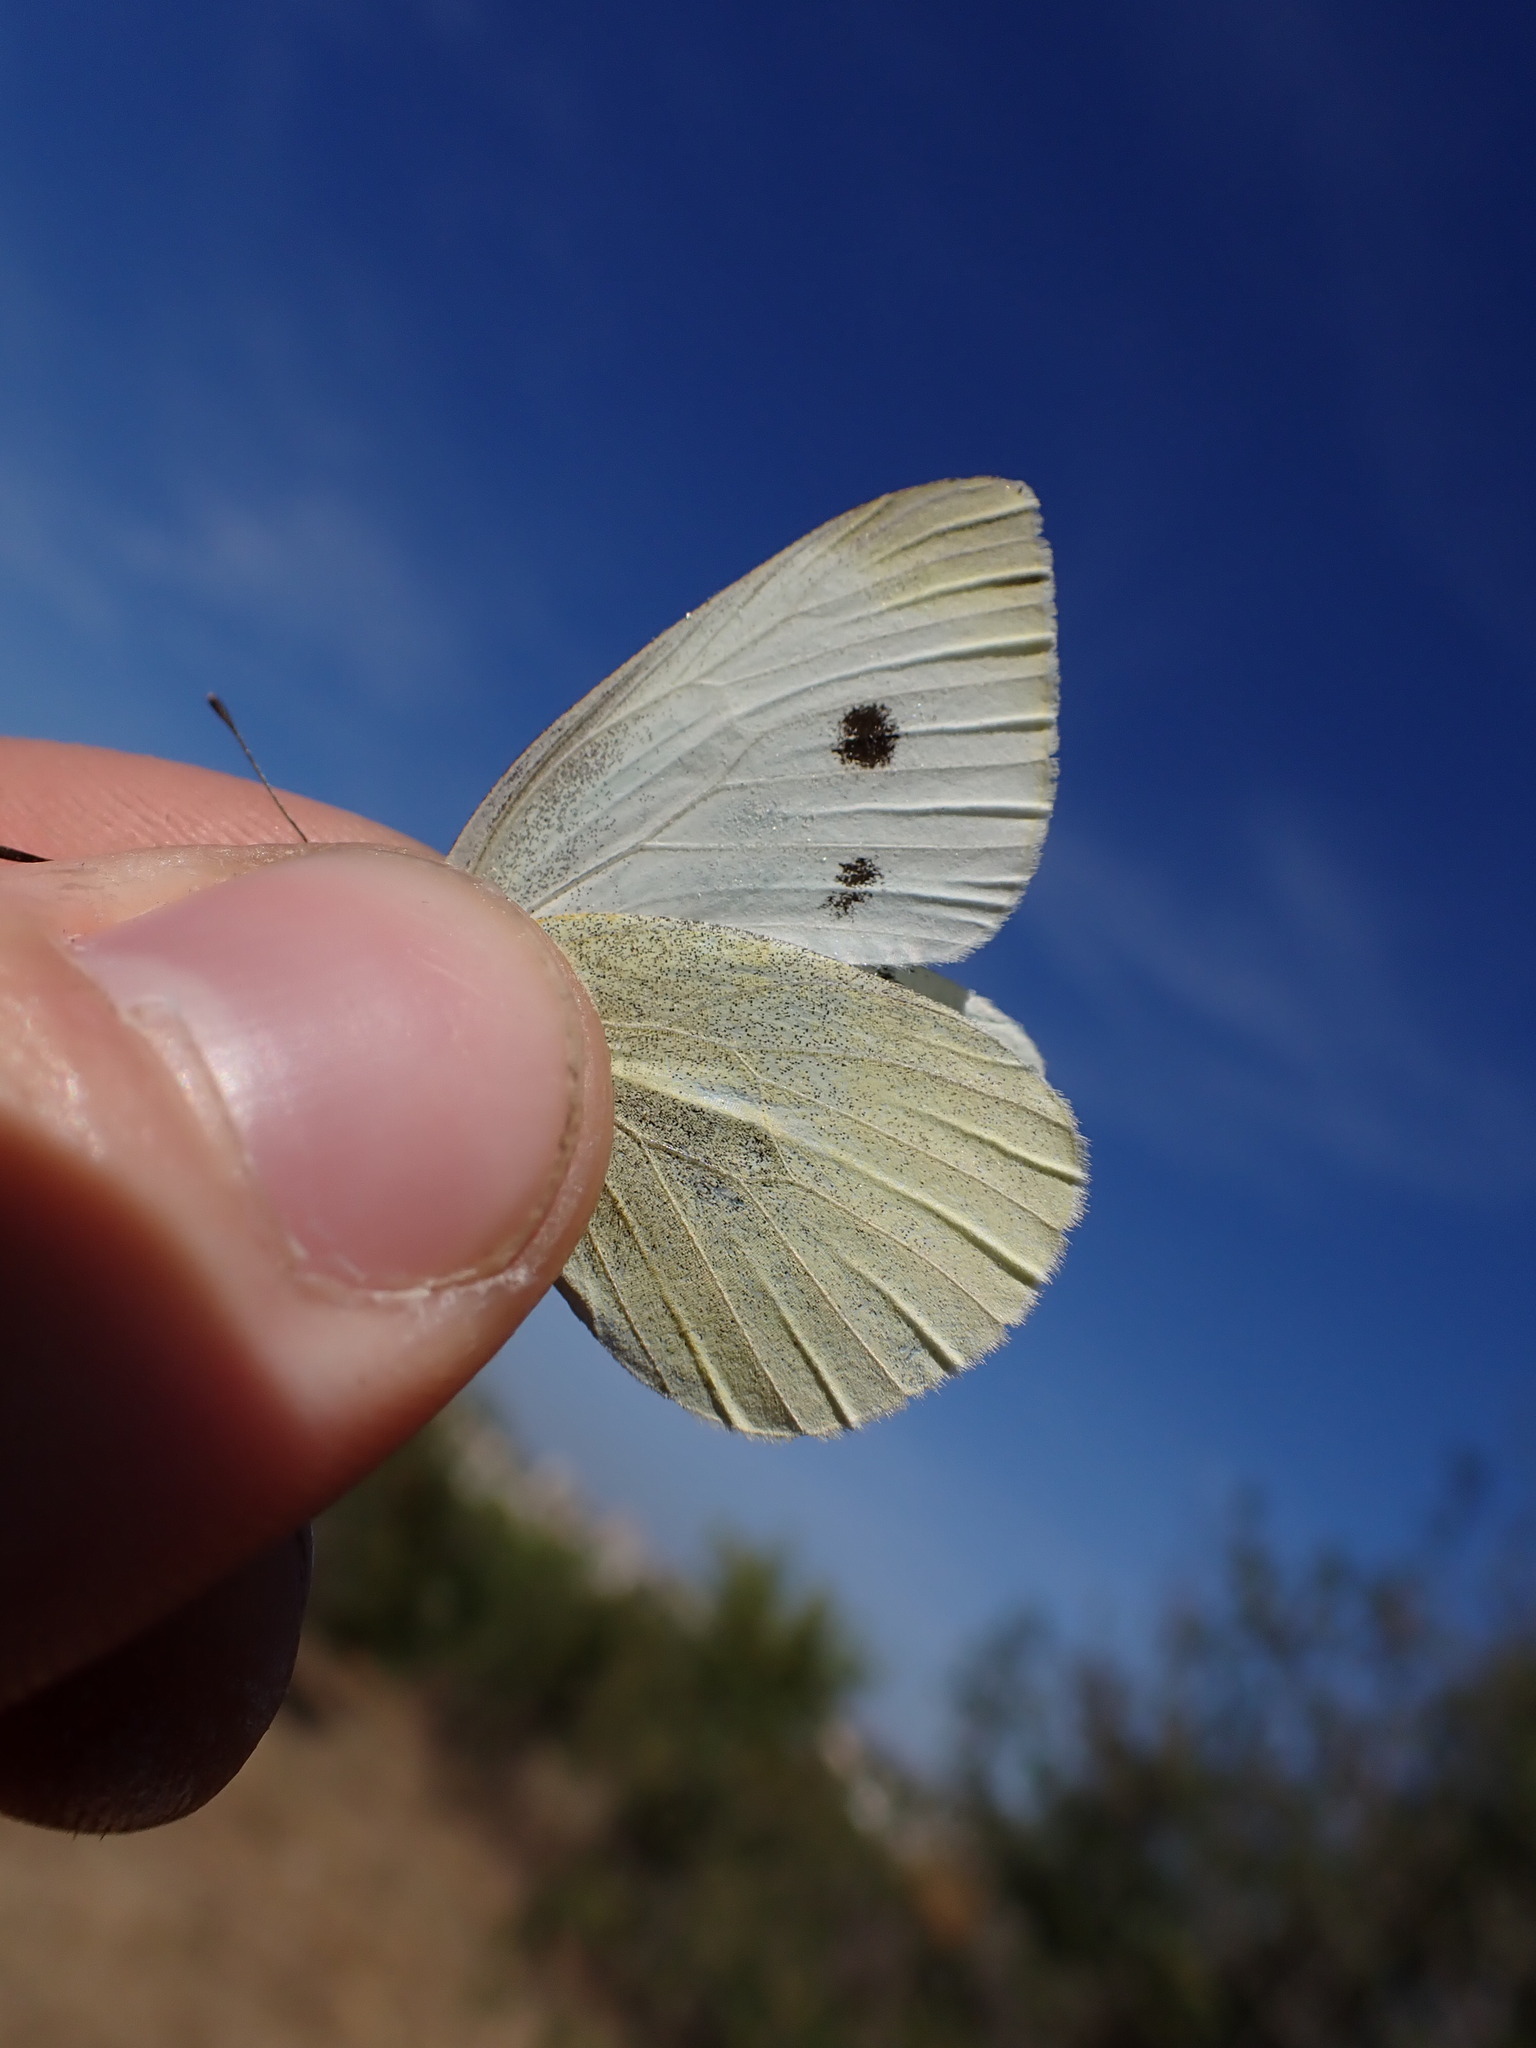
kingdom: Animalia
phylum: Arthropoda
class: Insecta
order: Lepidoptera
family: Pieridae
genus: Pieris
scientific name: Pieris rapae
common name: Small white
